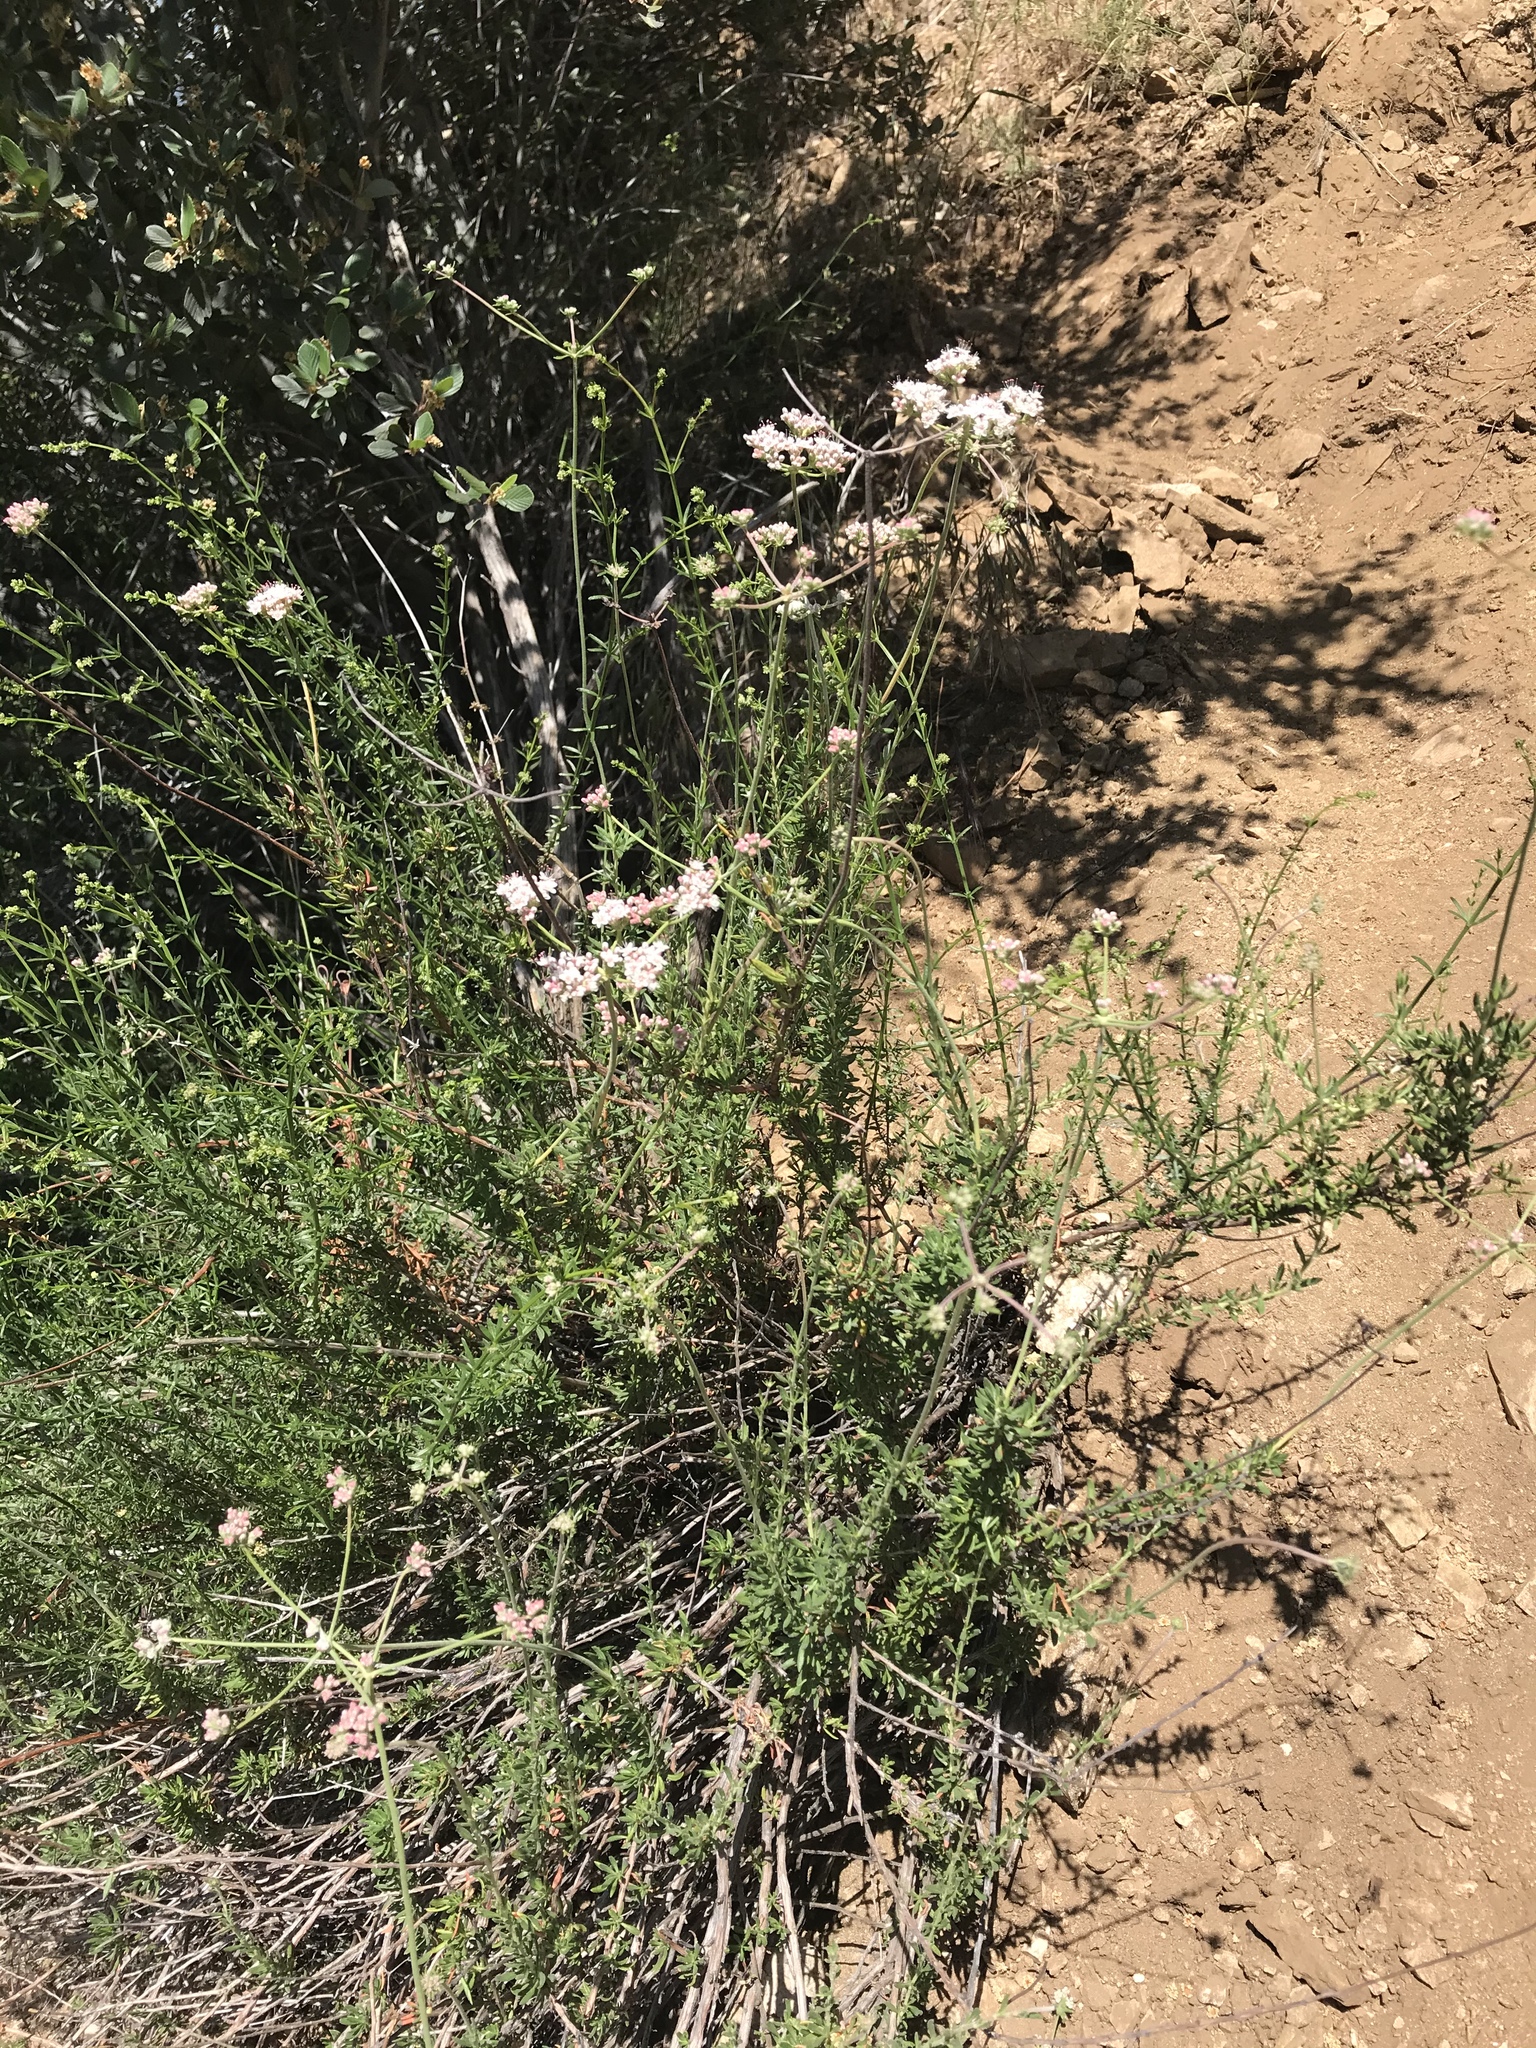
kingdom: Plantae
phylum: Tracheophyta
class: Magnoliopsida
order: Caryophyllales
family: Polygonaceae
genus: Eriogonum
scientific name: Eriogonum fasciculatum
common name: California wild buckwheat
